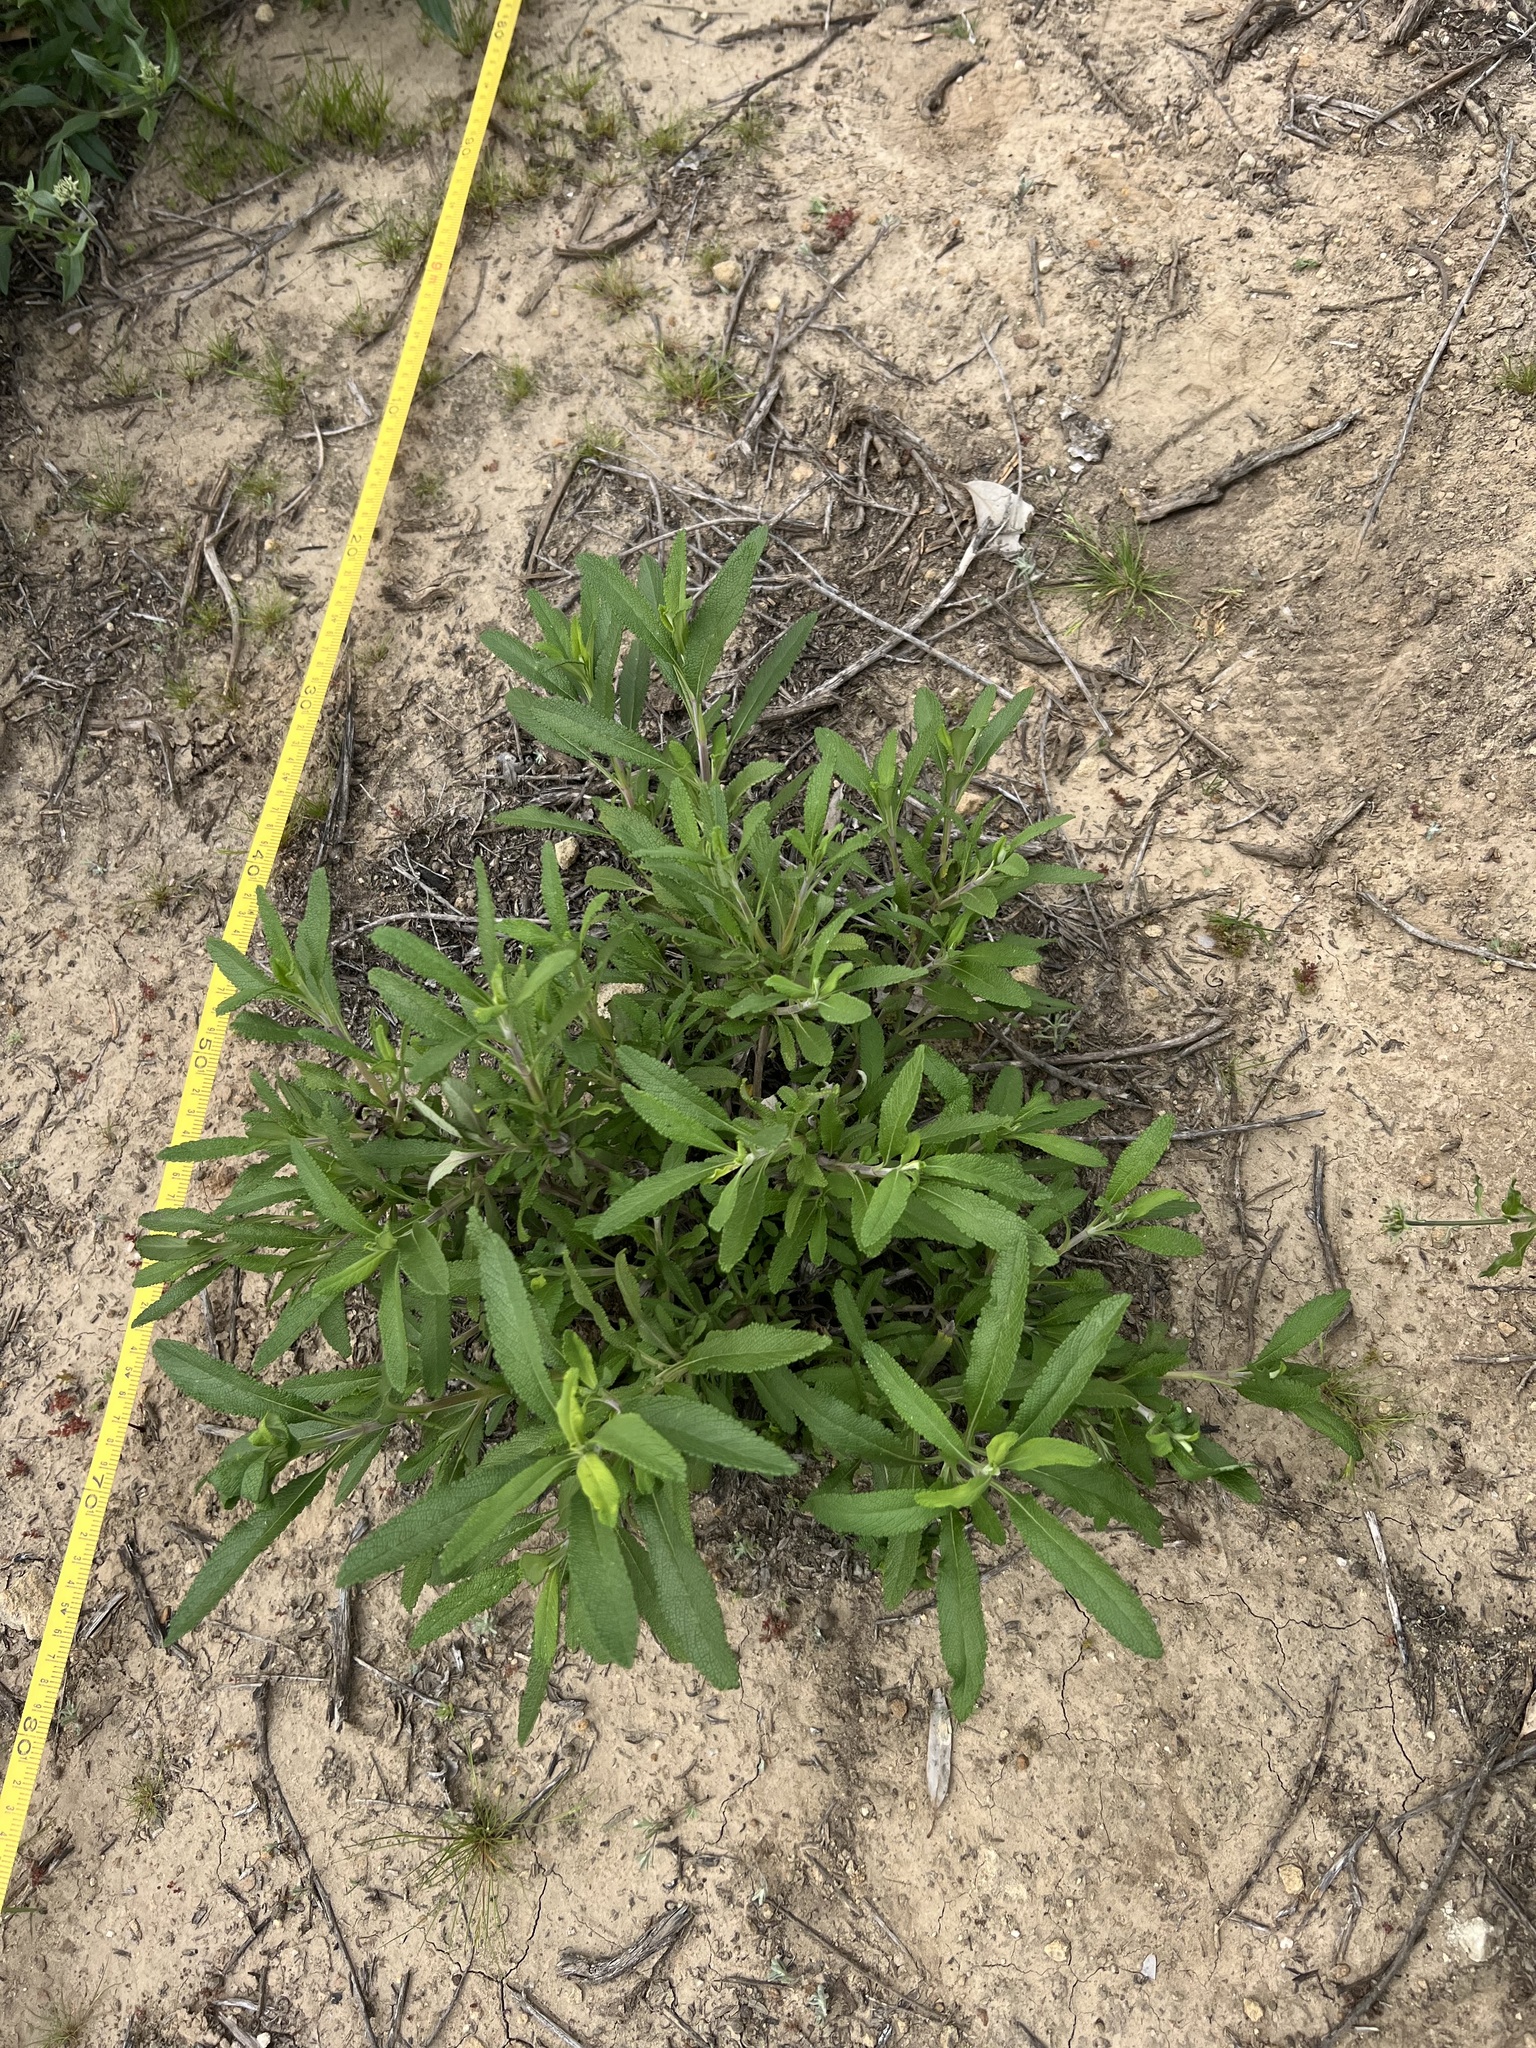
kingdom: Plantae
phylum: Tracheophyta
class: Magnoliopsida
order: Lamiales
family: Lamiaceae
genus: Salvia
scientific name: Salvia mellifera
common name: Black sage
